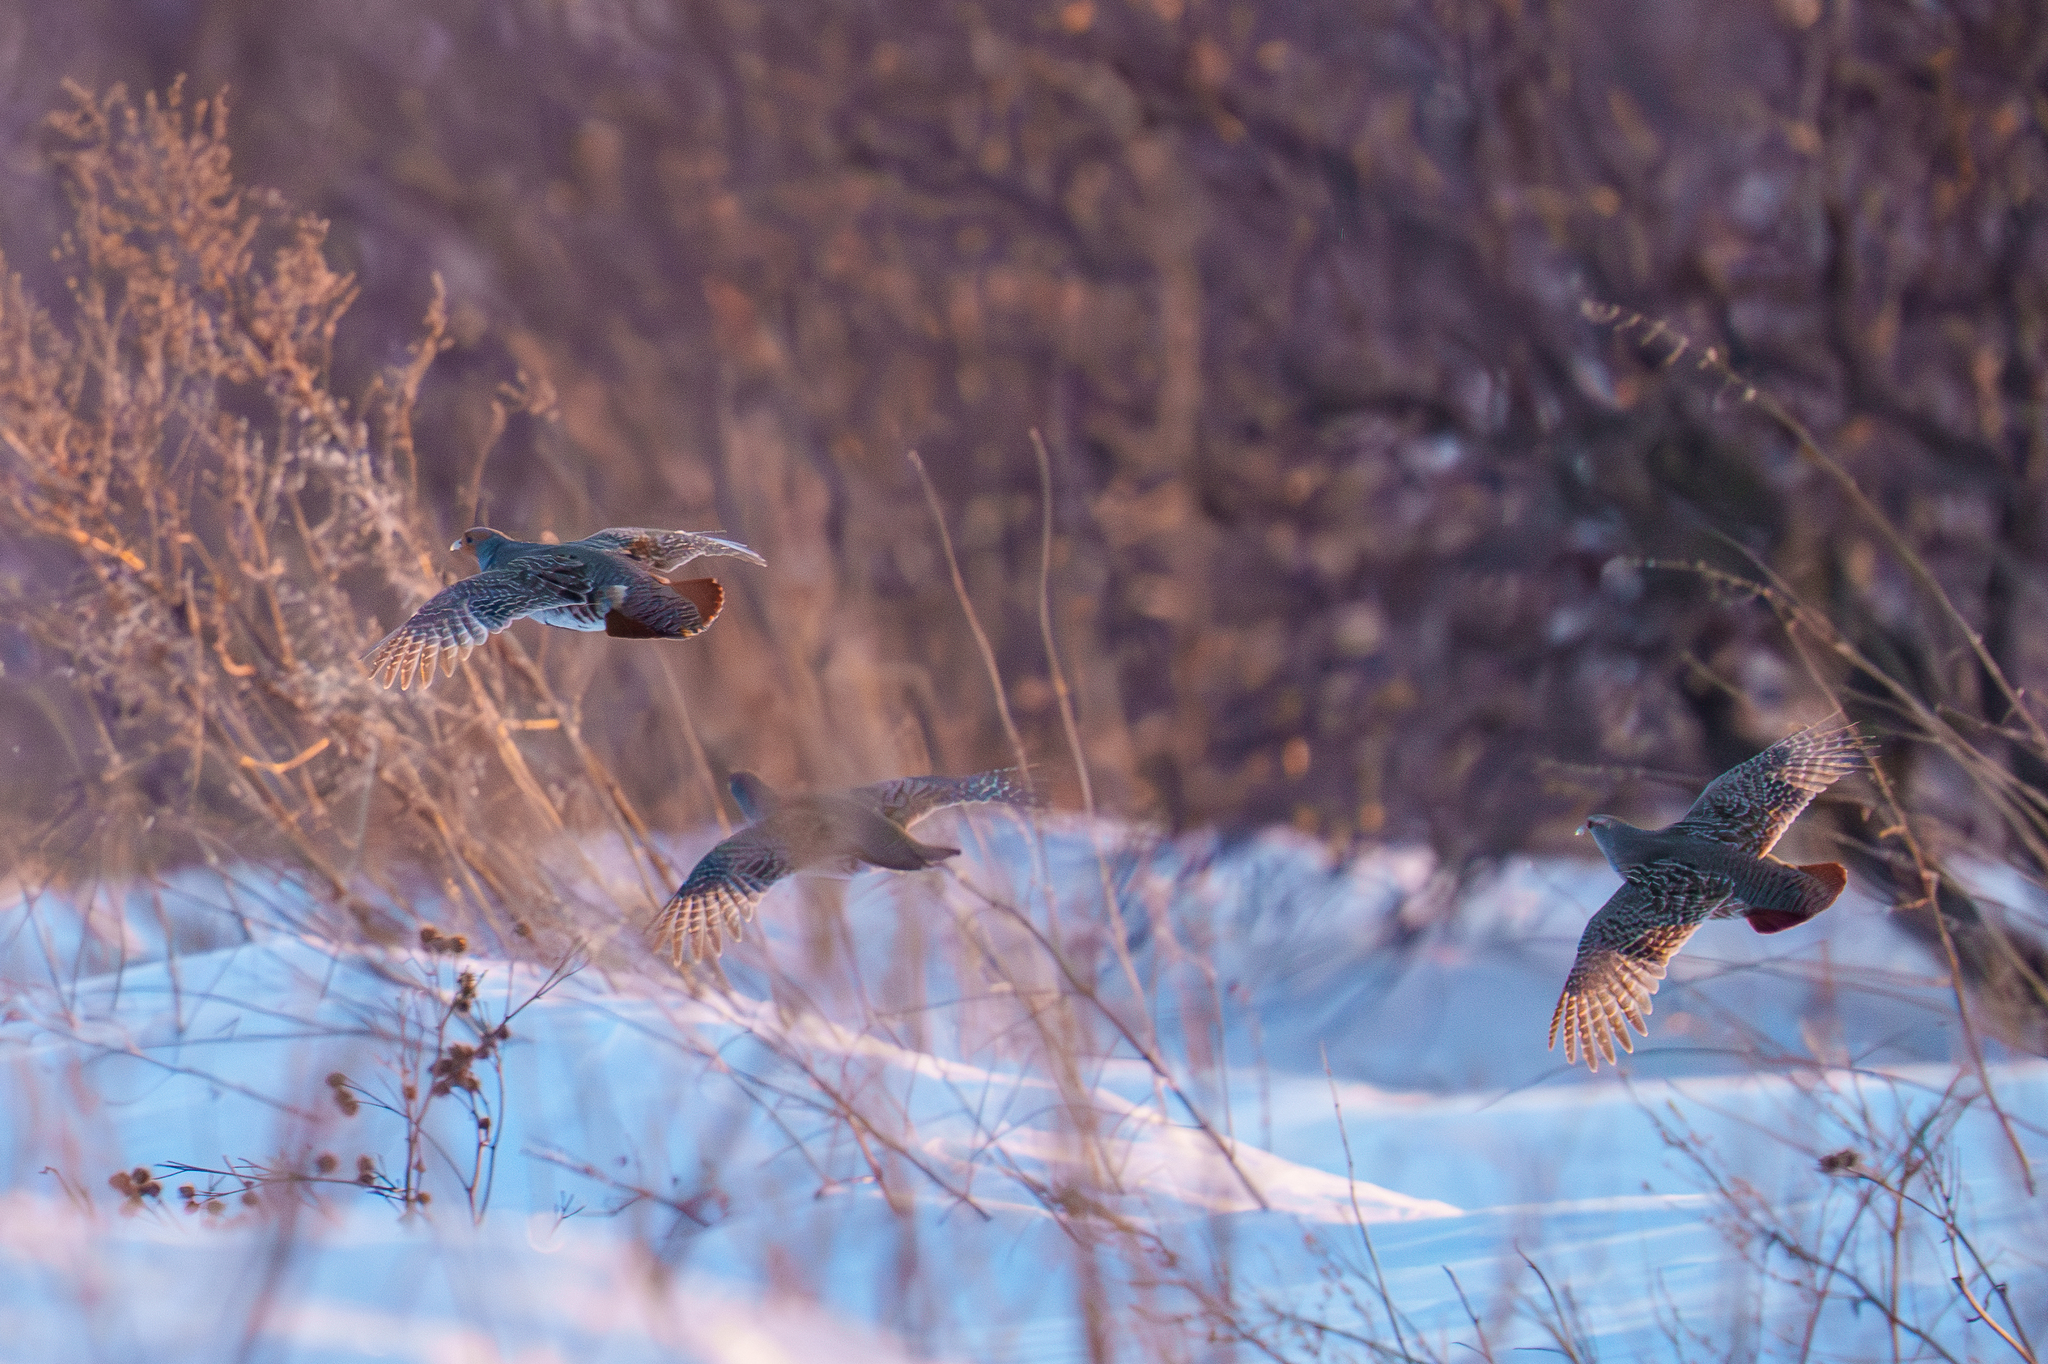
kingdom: Animalia
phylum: Chordata
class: Aves
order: Galliformes
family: Phasianidae
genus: Perdix
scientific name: Perdix perdix
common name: Grey partridge
